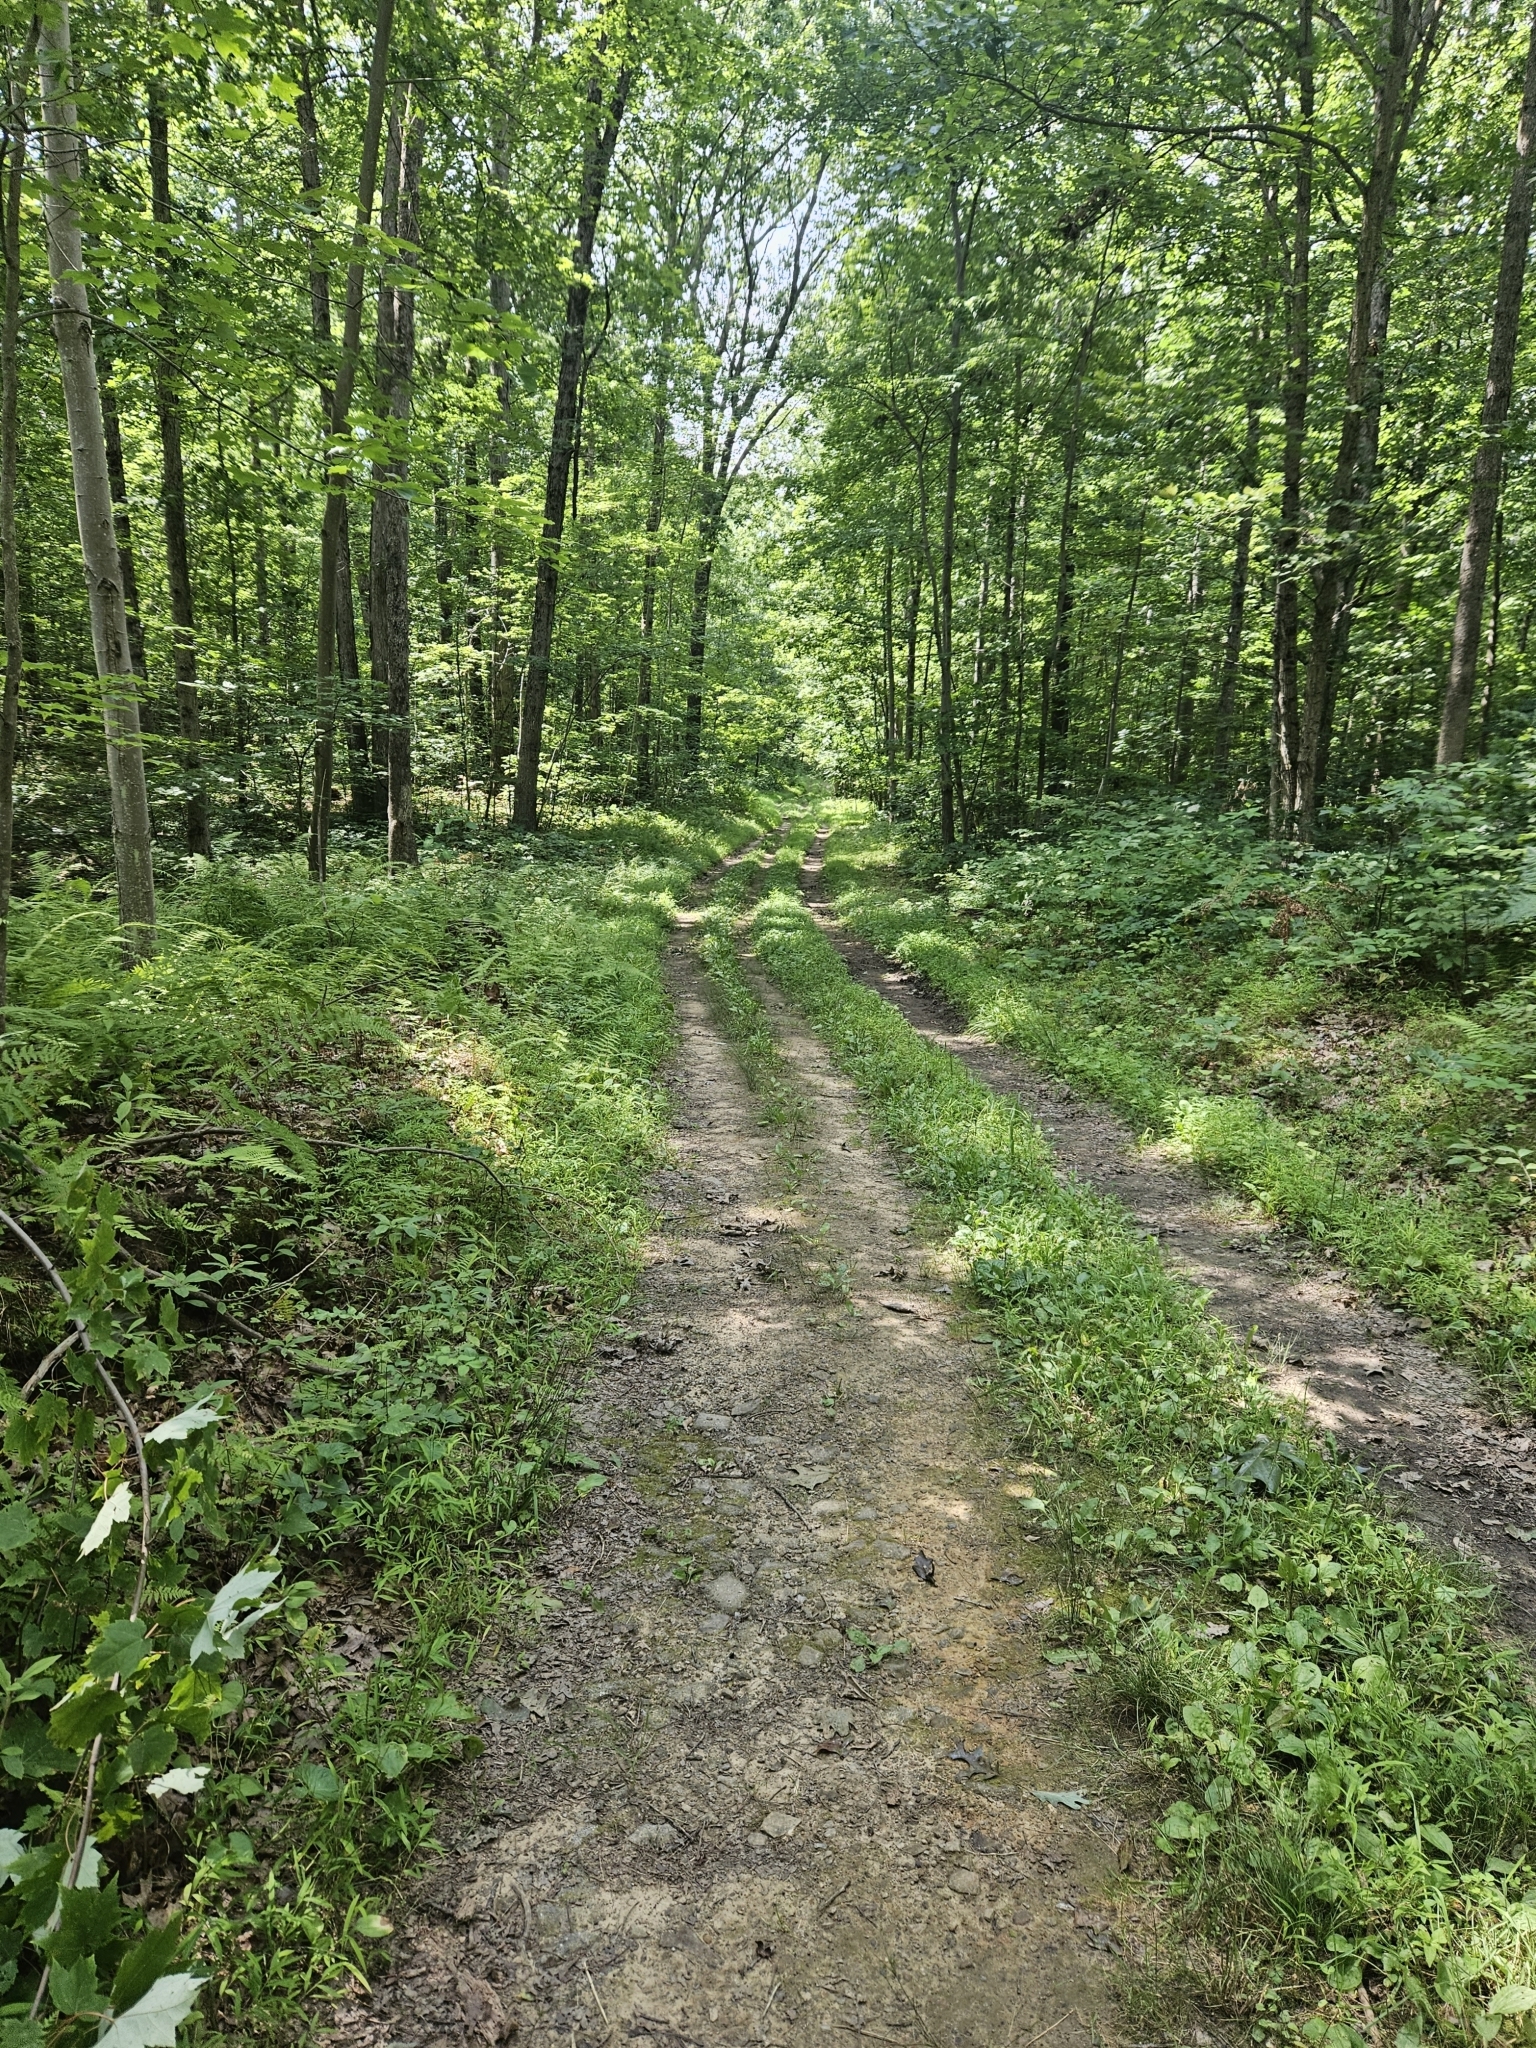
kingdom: Plantae
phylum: Tracheophyta
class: Liliopsida
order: Poales
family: Poaceae
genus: Microstegium
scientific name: Microstegium vimineum
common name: Japanese stiltgrass
